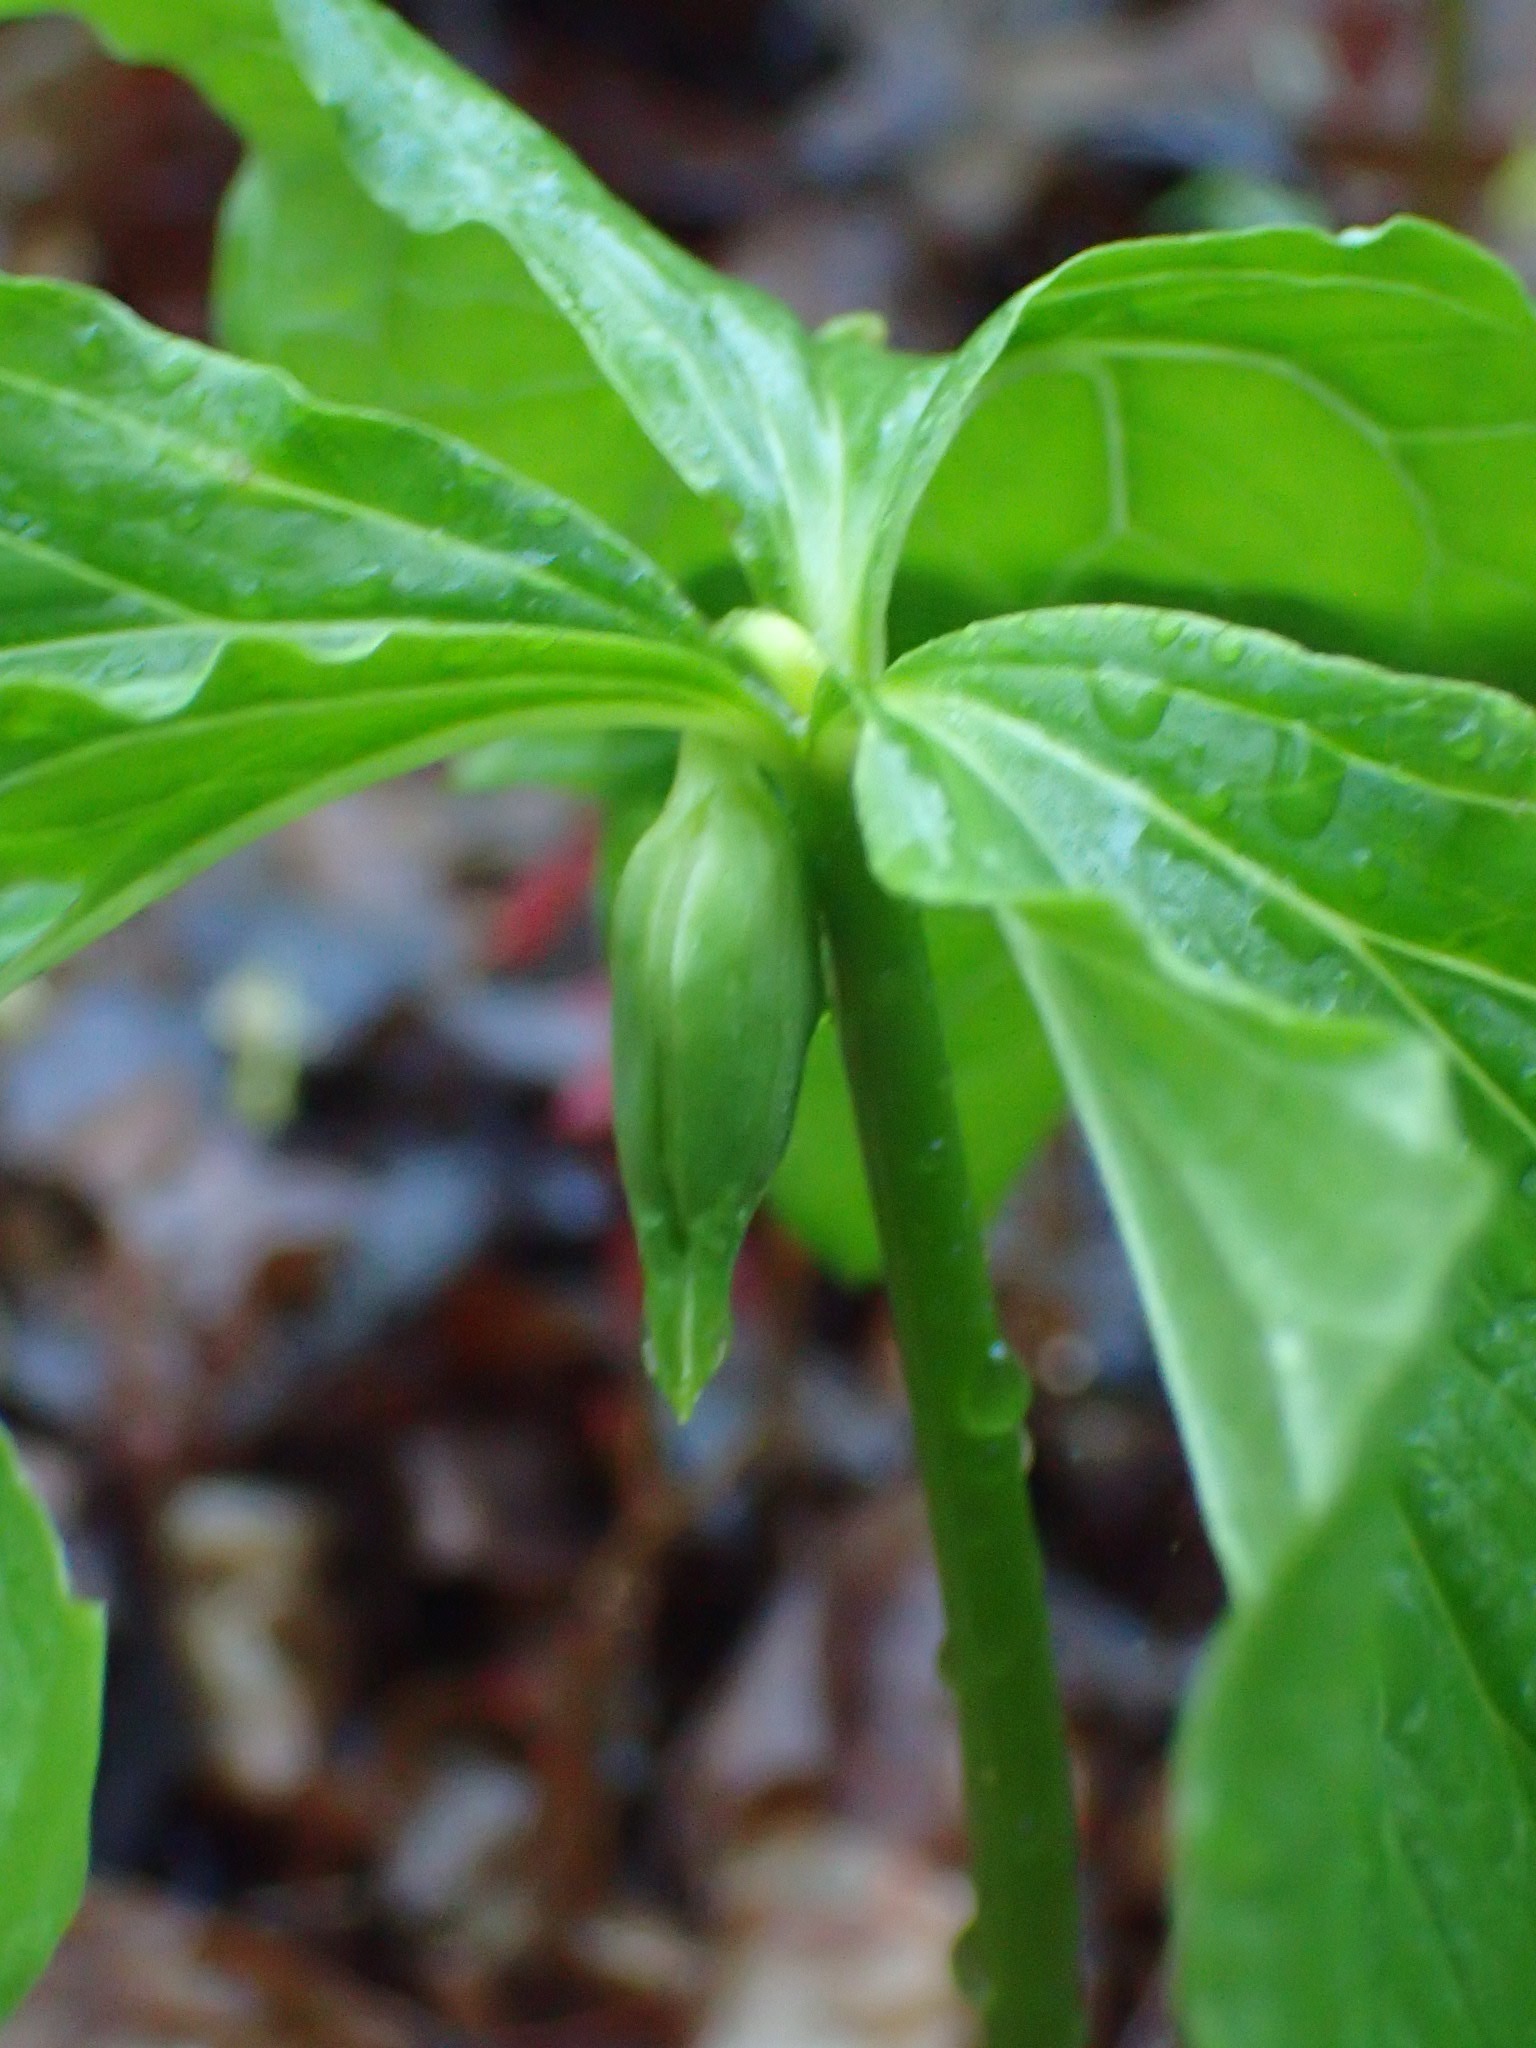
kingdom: Plantae
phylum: Tracheophyta
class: Liliopsida
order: Liliales
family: Melanthiaceae
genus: Trillium
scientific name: Trillium cernuum
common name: Nodding trillium
